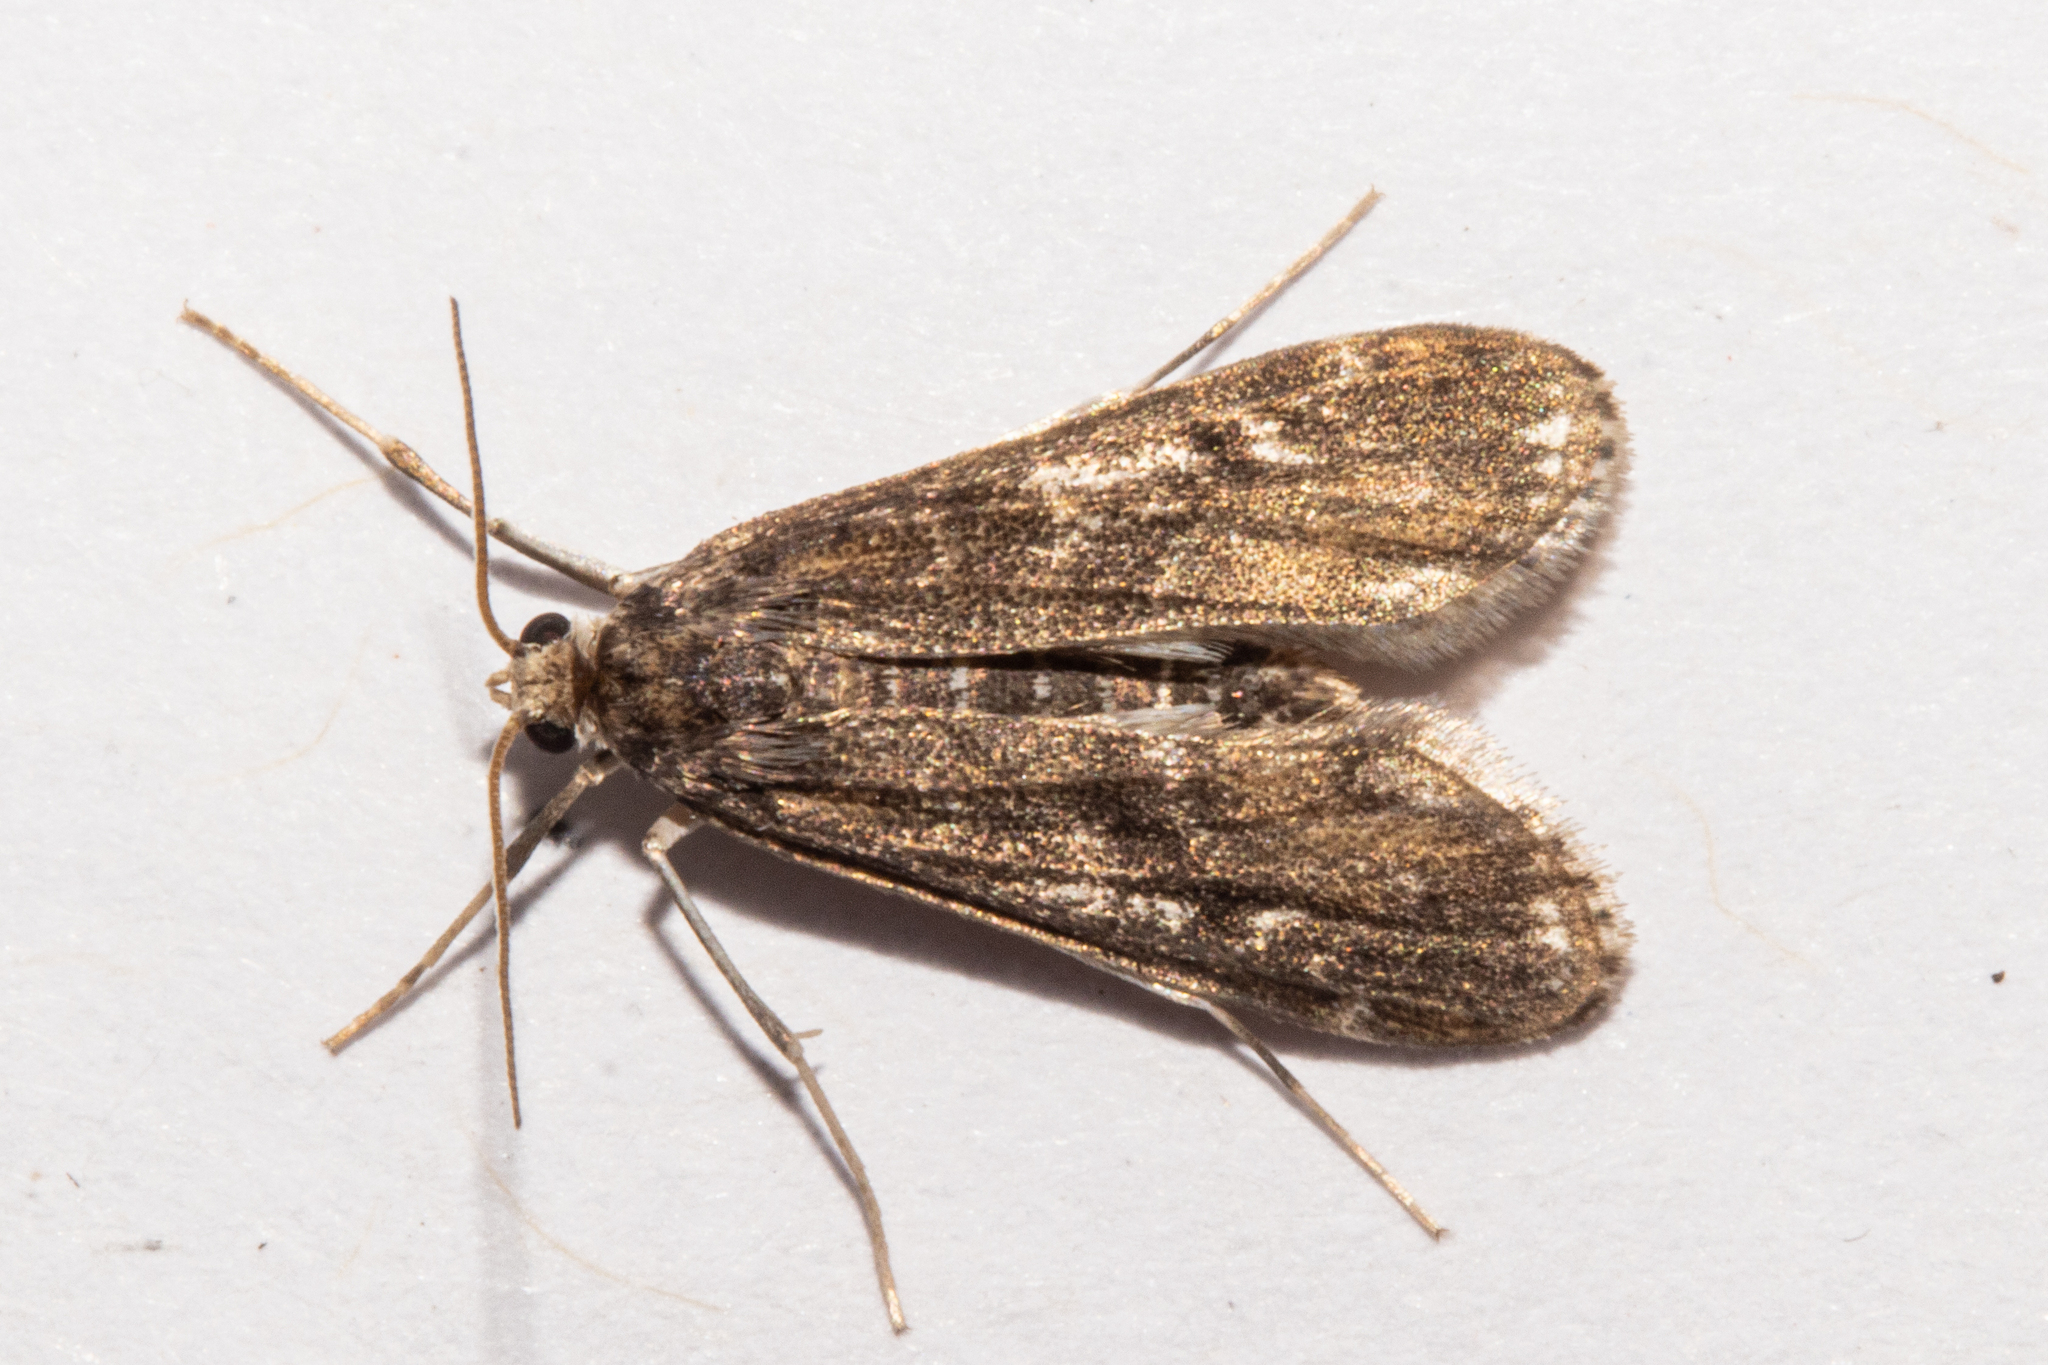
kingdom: Animalia
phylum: Arthropoda
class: Insecta
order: Lepidoptera
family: Crambidae
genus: Hygraula
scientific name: Hygraula nitens
